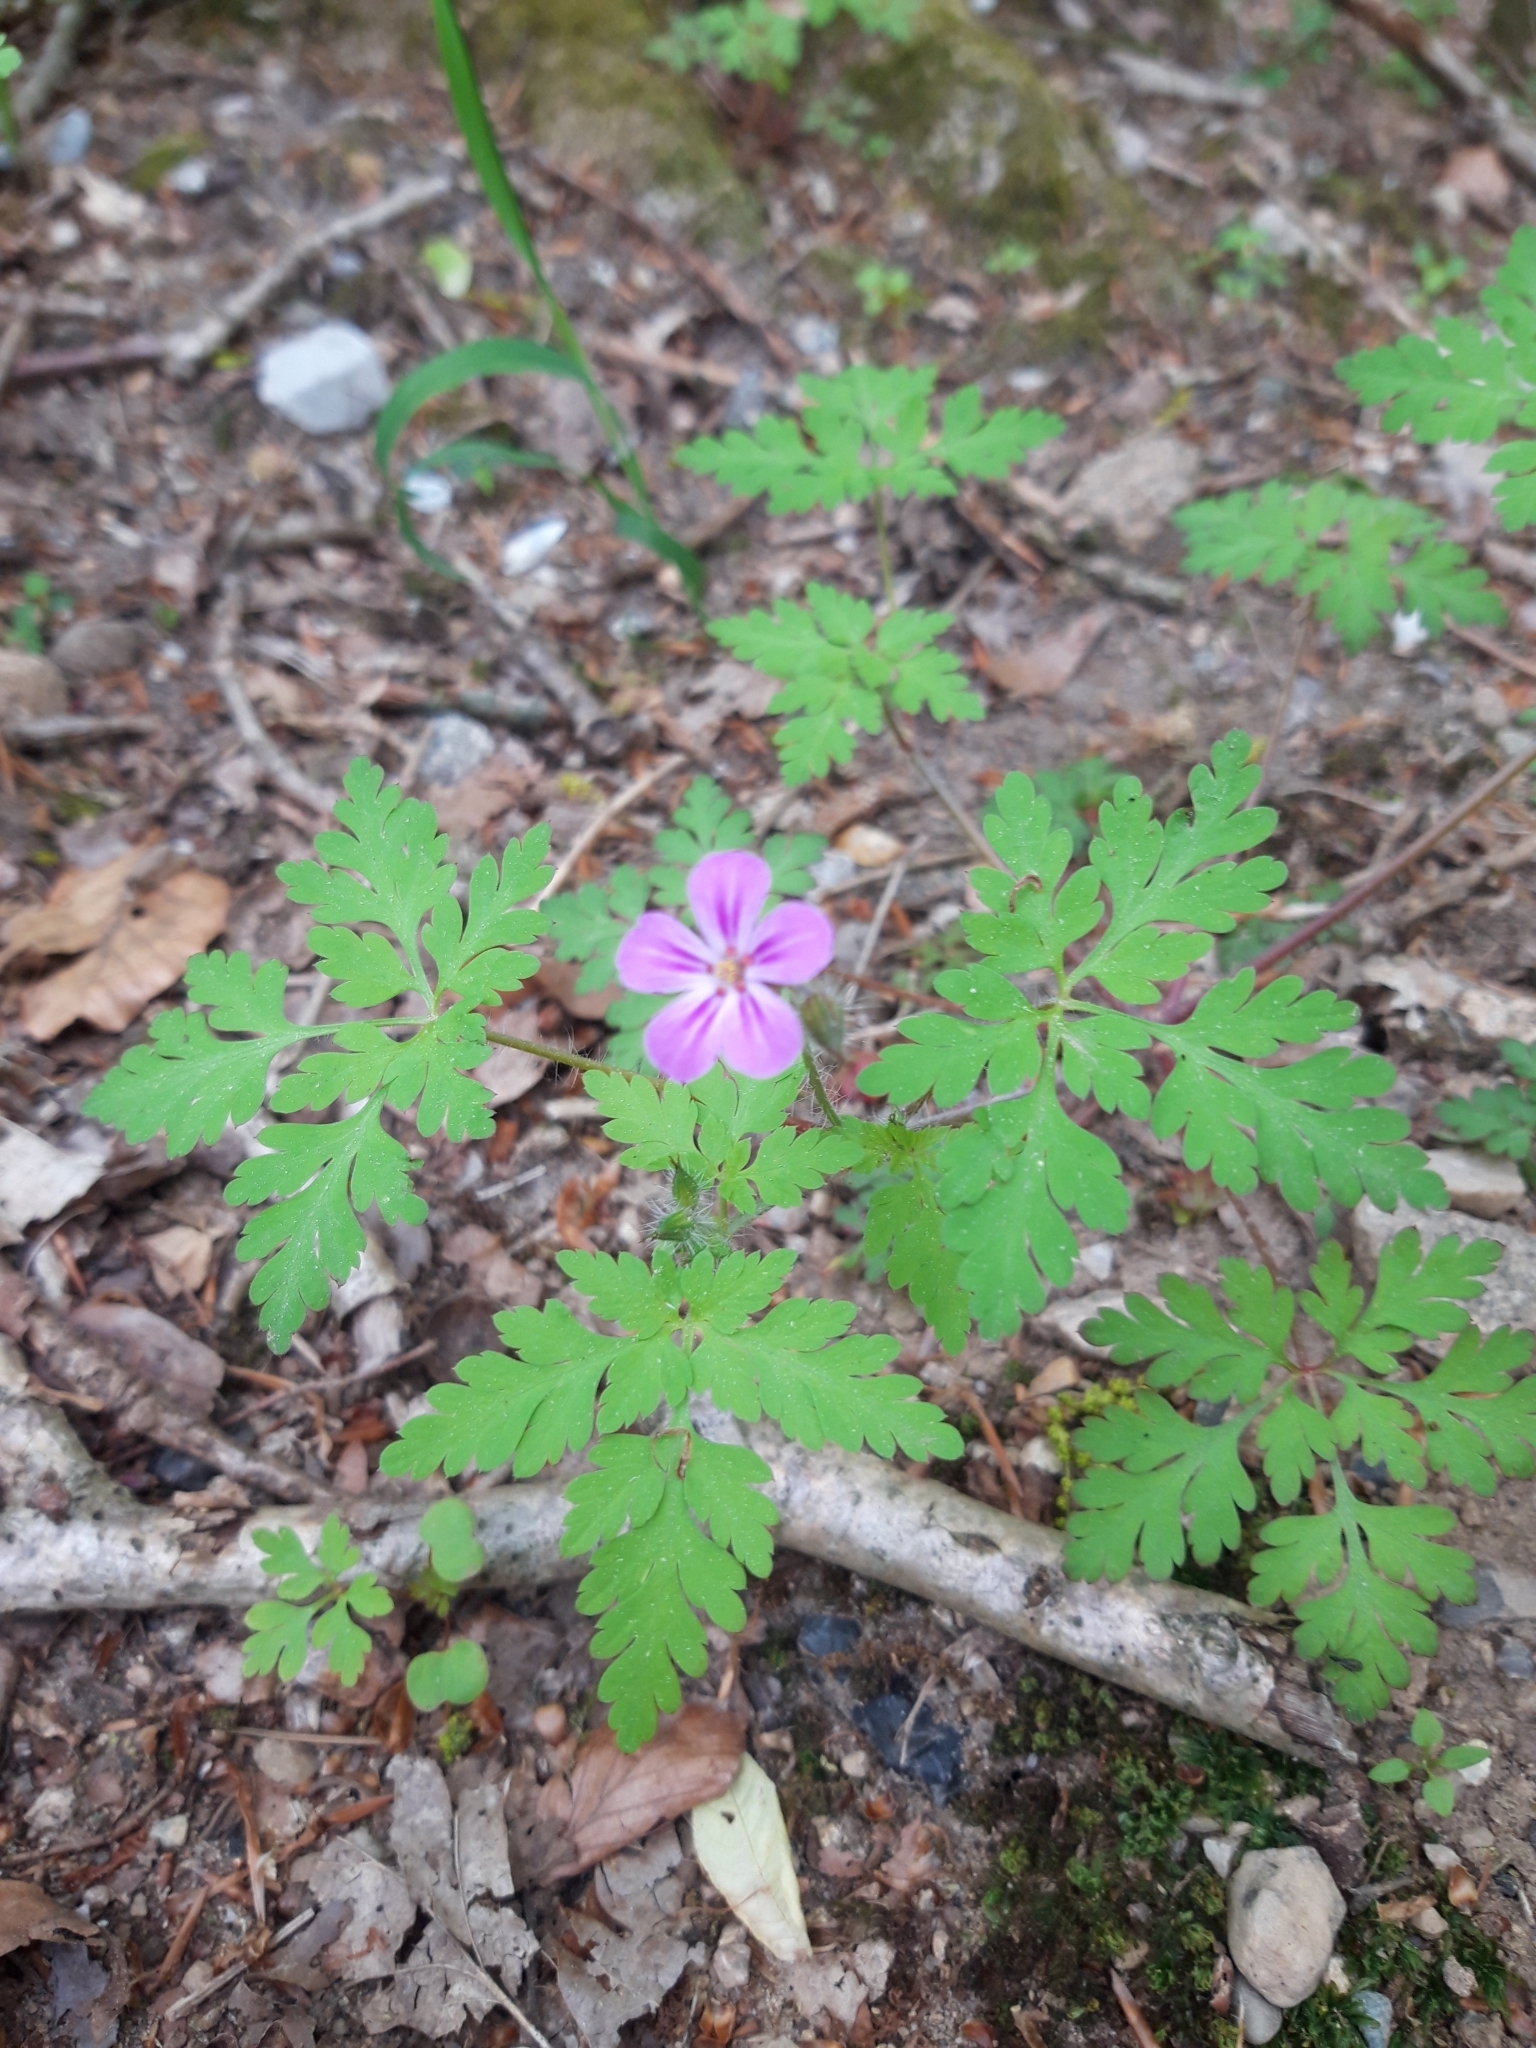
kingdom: Plantae
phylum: Tracheophyta
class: Magnoliopsida
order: Geraniales
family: Geraniaceae
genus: Geranium
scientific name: Geranium robertianum
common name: Herb-robert
